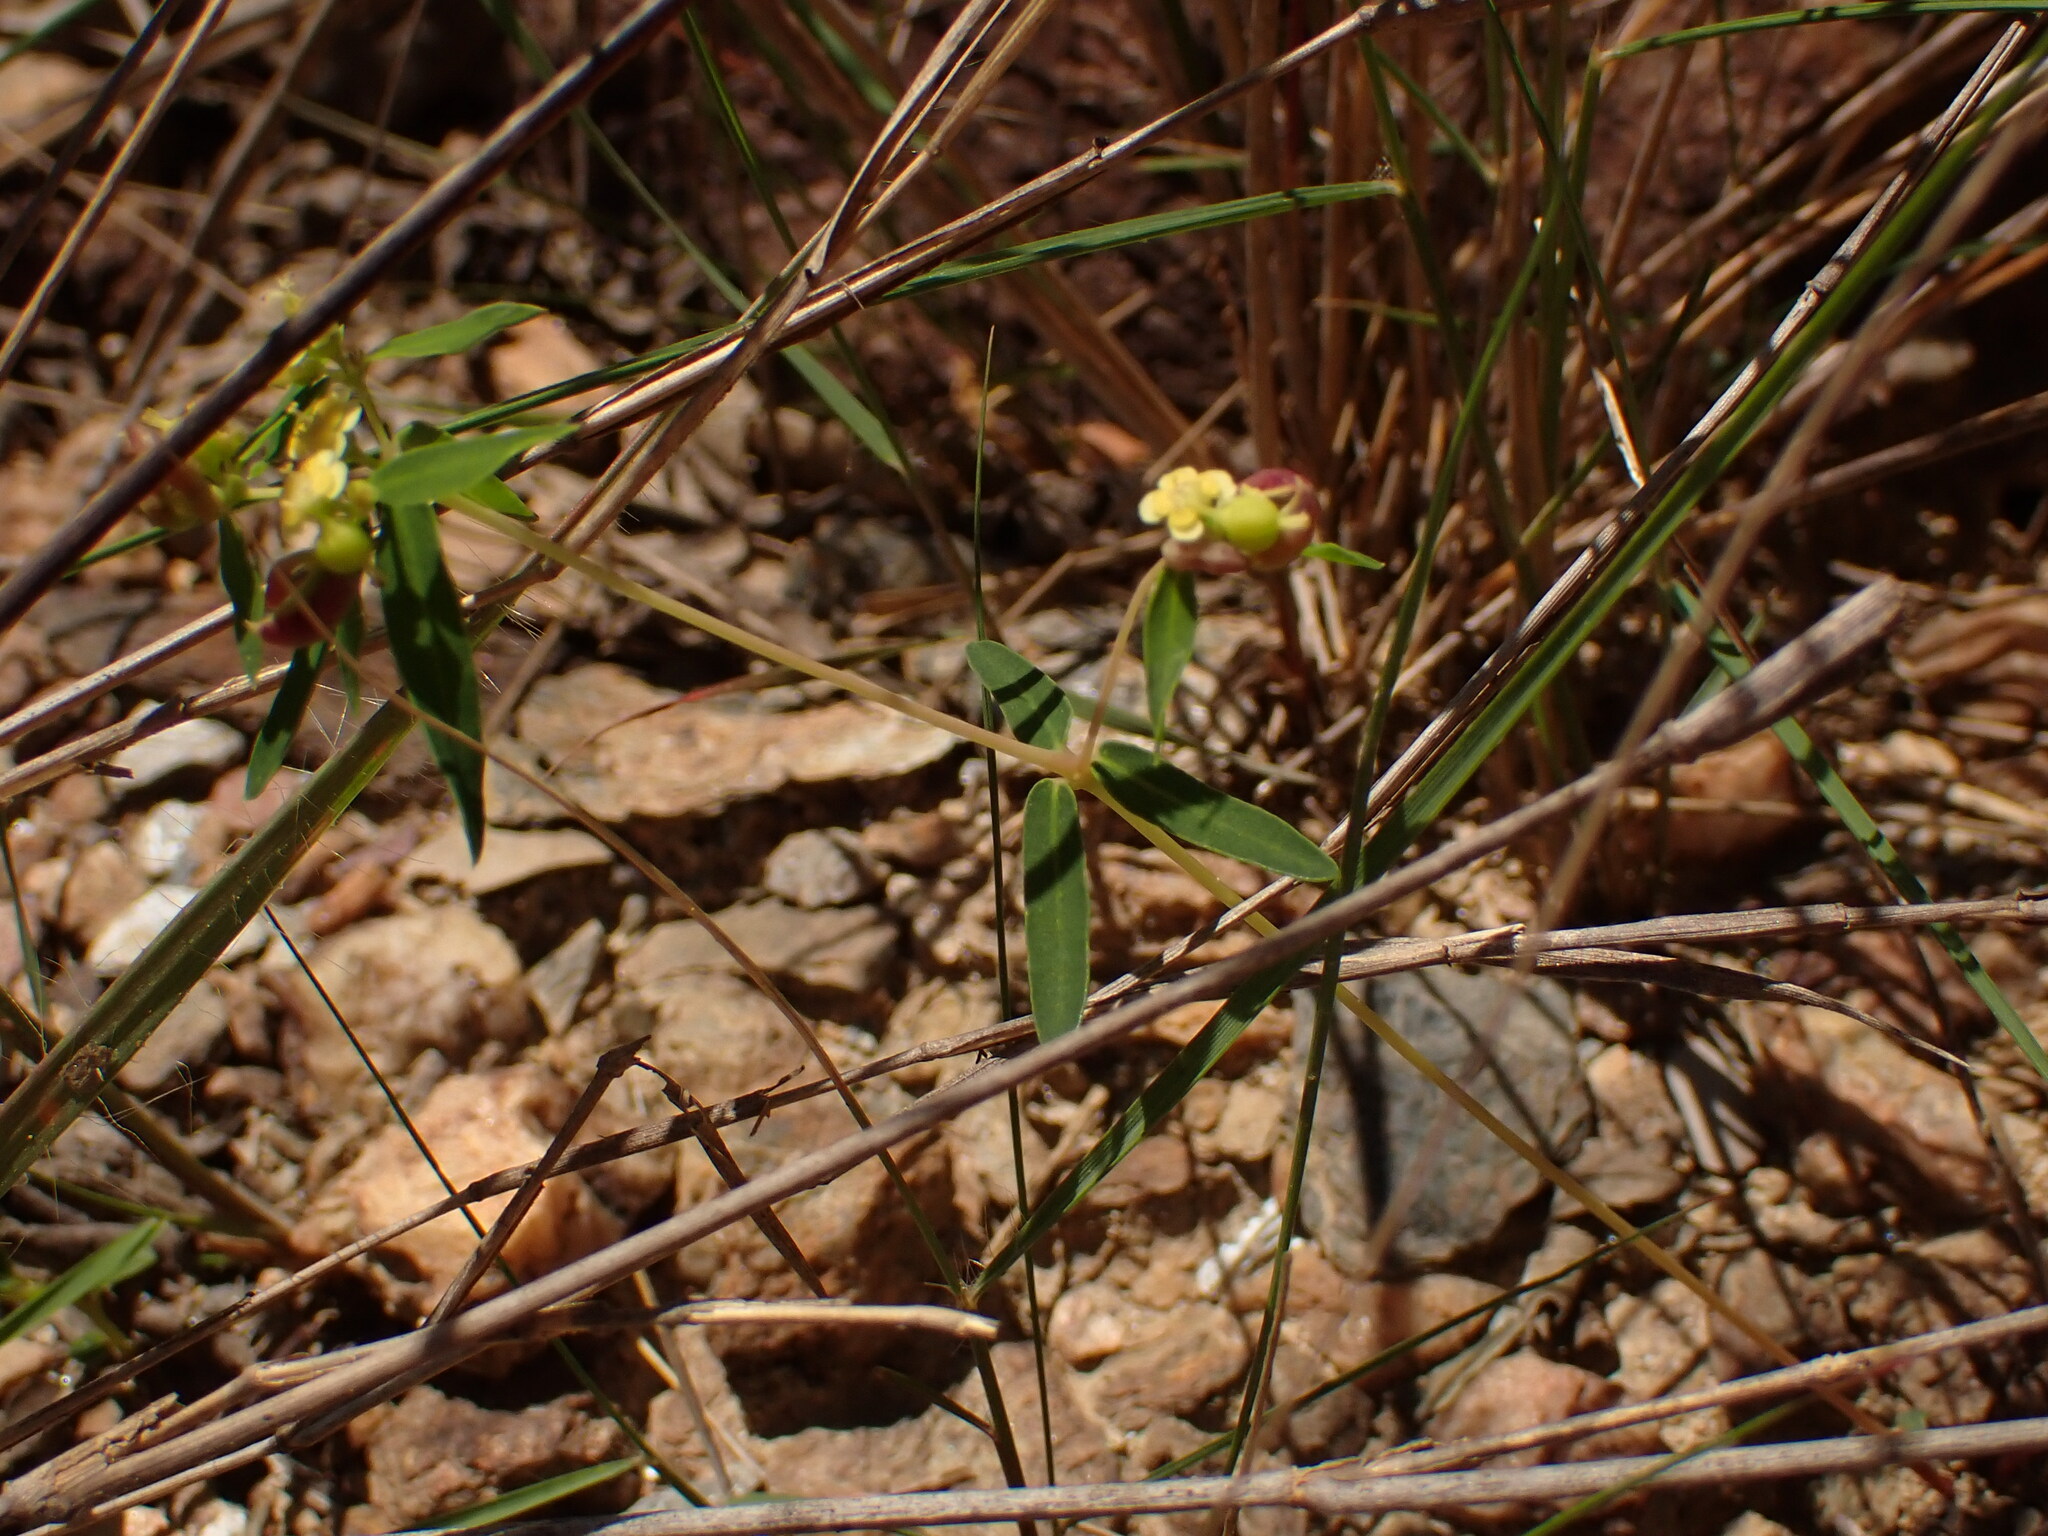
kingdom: Plantae
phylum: Tracheophyta
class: Magnoliopsida
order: Malpighiales
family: Euphorbiaceae
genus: Euphorbia
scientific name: Euphorbia potentilloides
